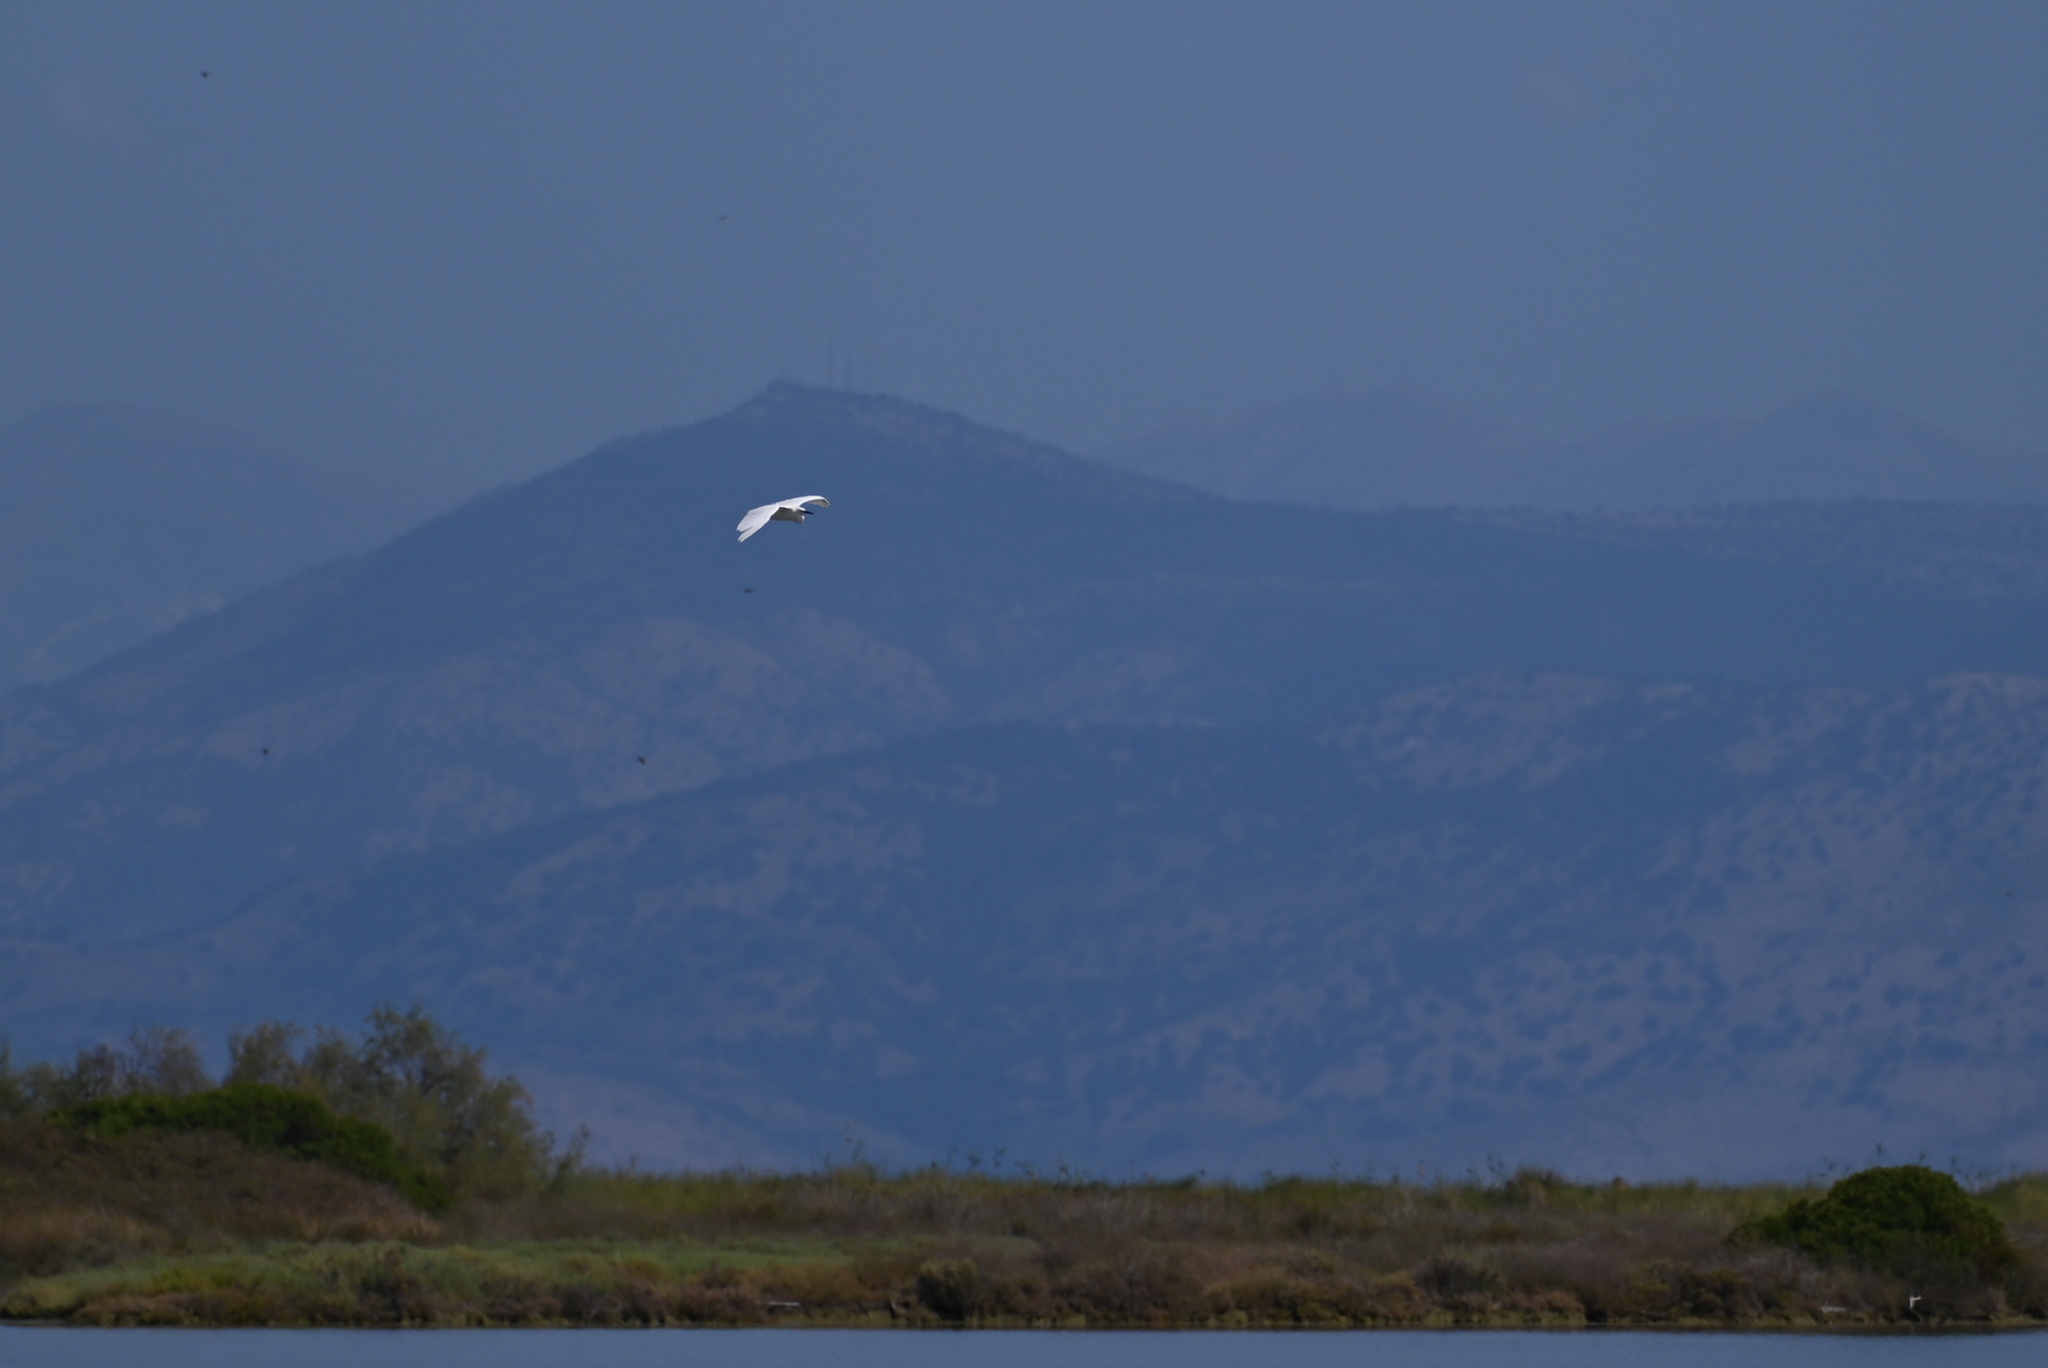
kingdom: Animalia
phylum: Chordata
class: Aves
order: Pelecaniformes
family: Ardeidae
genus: Egretta
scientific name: Egretta garzetta
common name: Little egret
